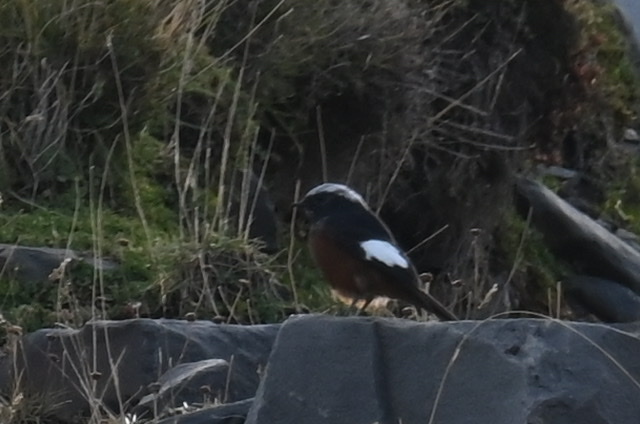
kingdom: Animalia
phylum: Chordata
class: Aves
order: Passeriformes
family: Muscicapidae
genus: Phoenicurus
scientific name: Phoenicurus erythrogastrus
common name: Güldenstädt's redstart
